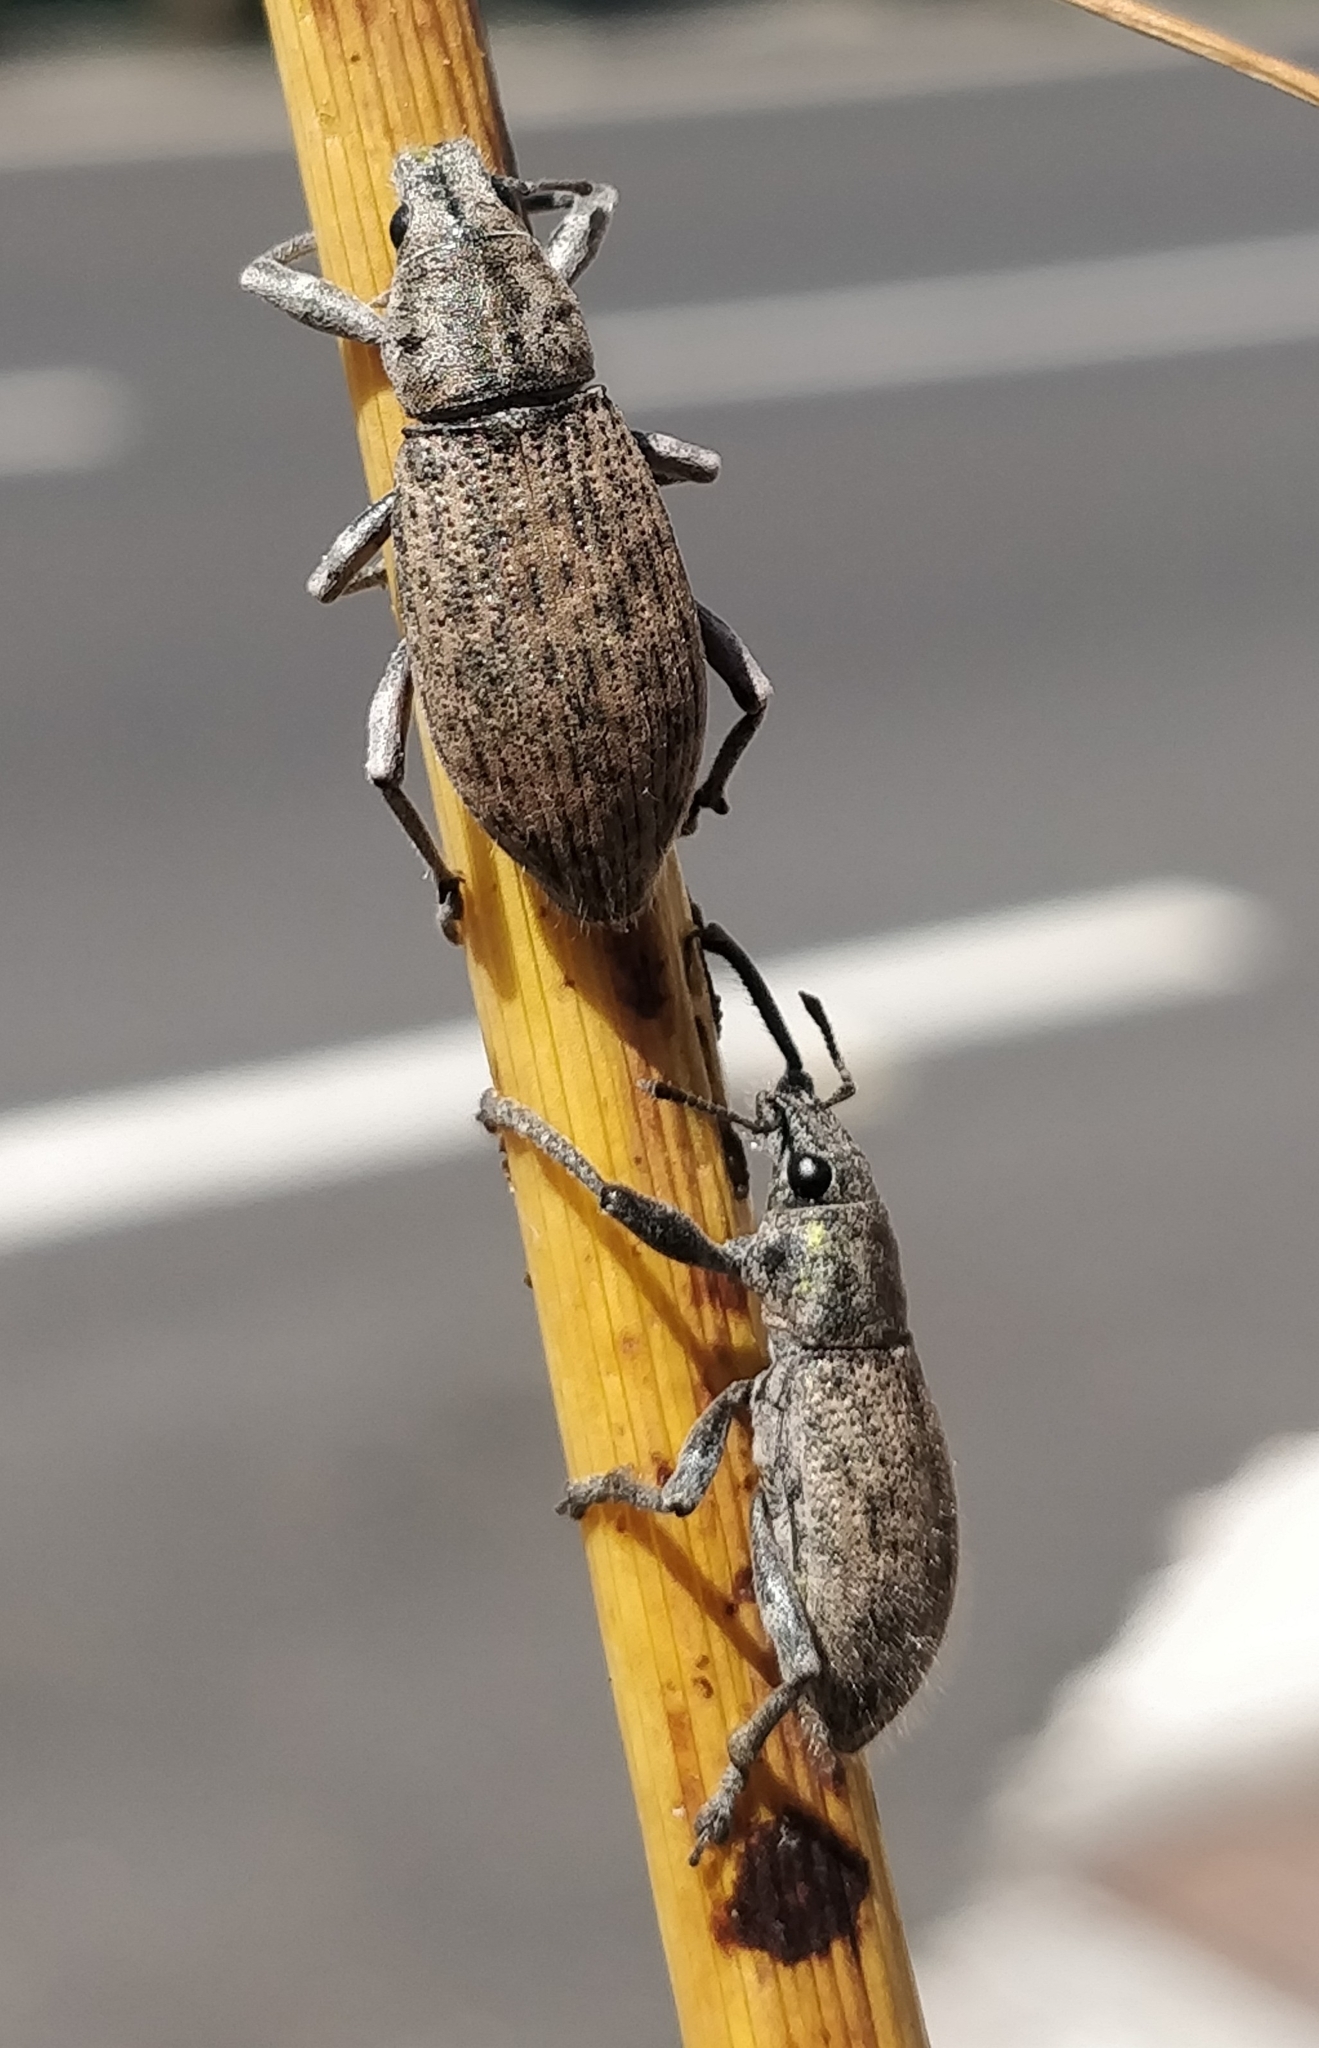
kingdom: Animalia
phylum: Arthropoda
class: Insecta
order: Coleoptera
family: Curculionidae
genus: Herpisticus
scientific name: Herpisticus gomerensis
